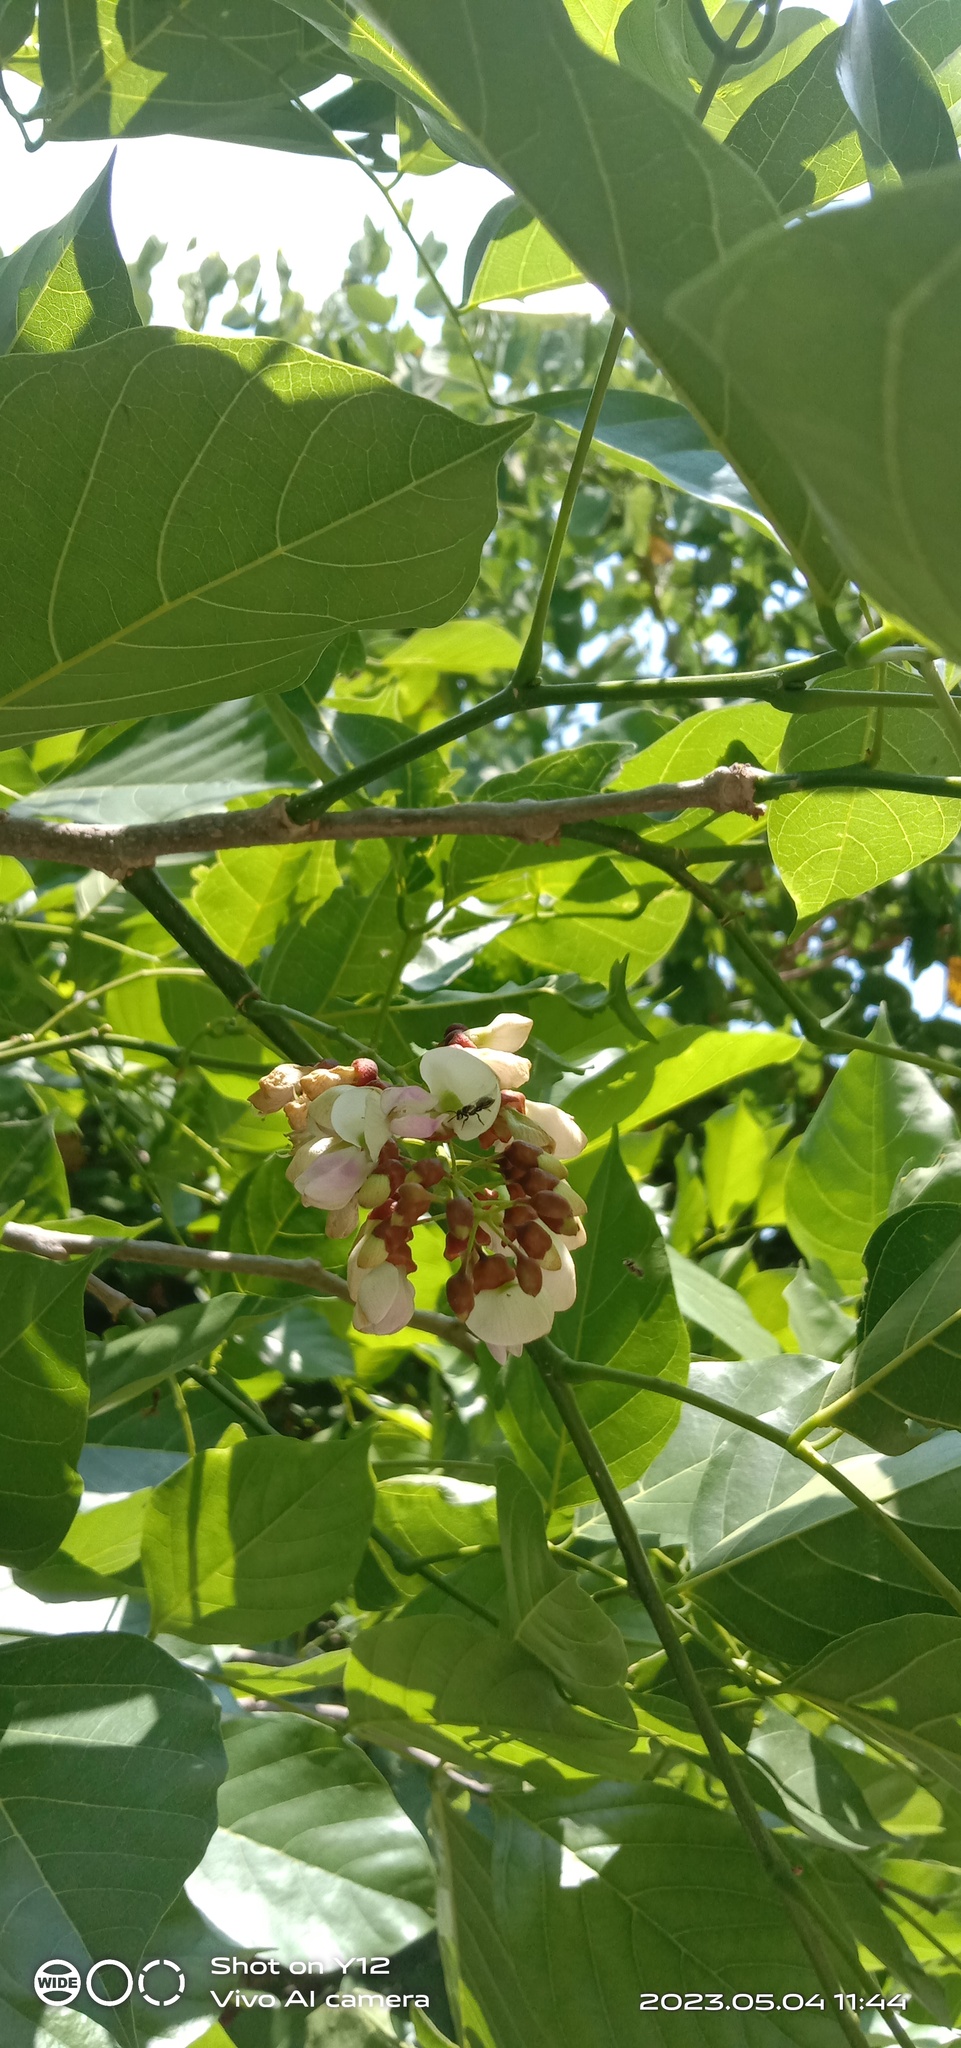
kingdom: Plantae
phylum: Tracheophyta
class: Magnoliopsida
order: Fabales
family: Fabaceae
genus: Pongamia
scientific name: Pongamia pinnata
